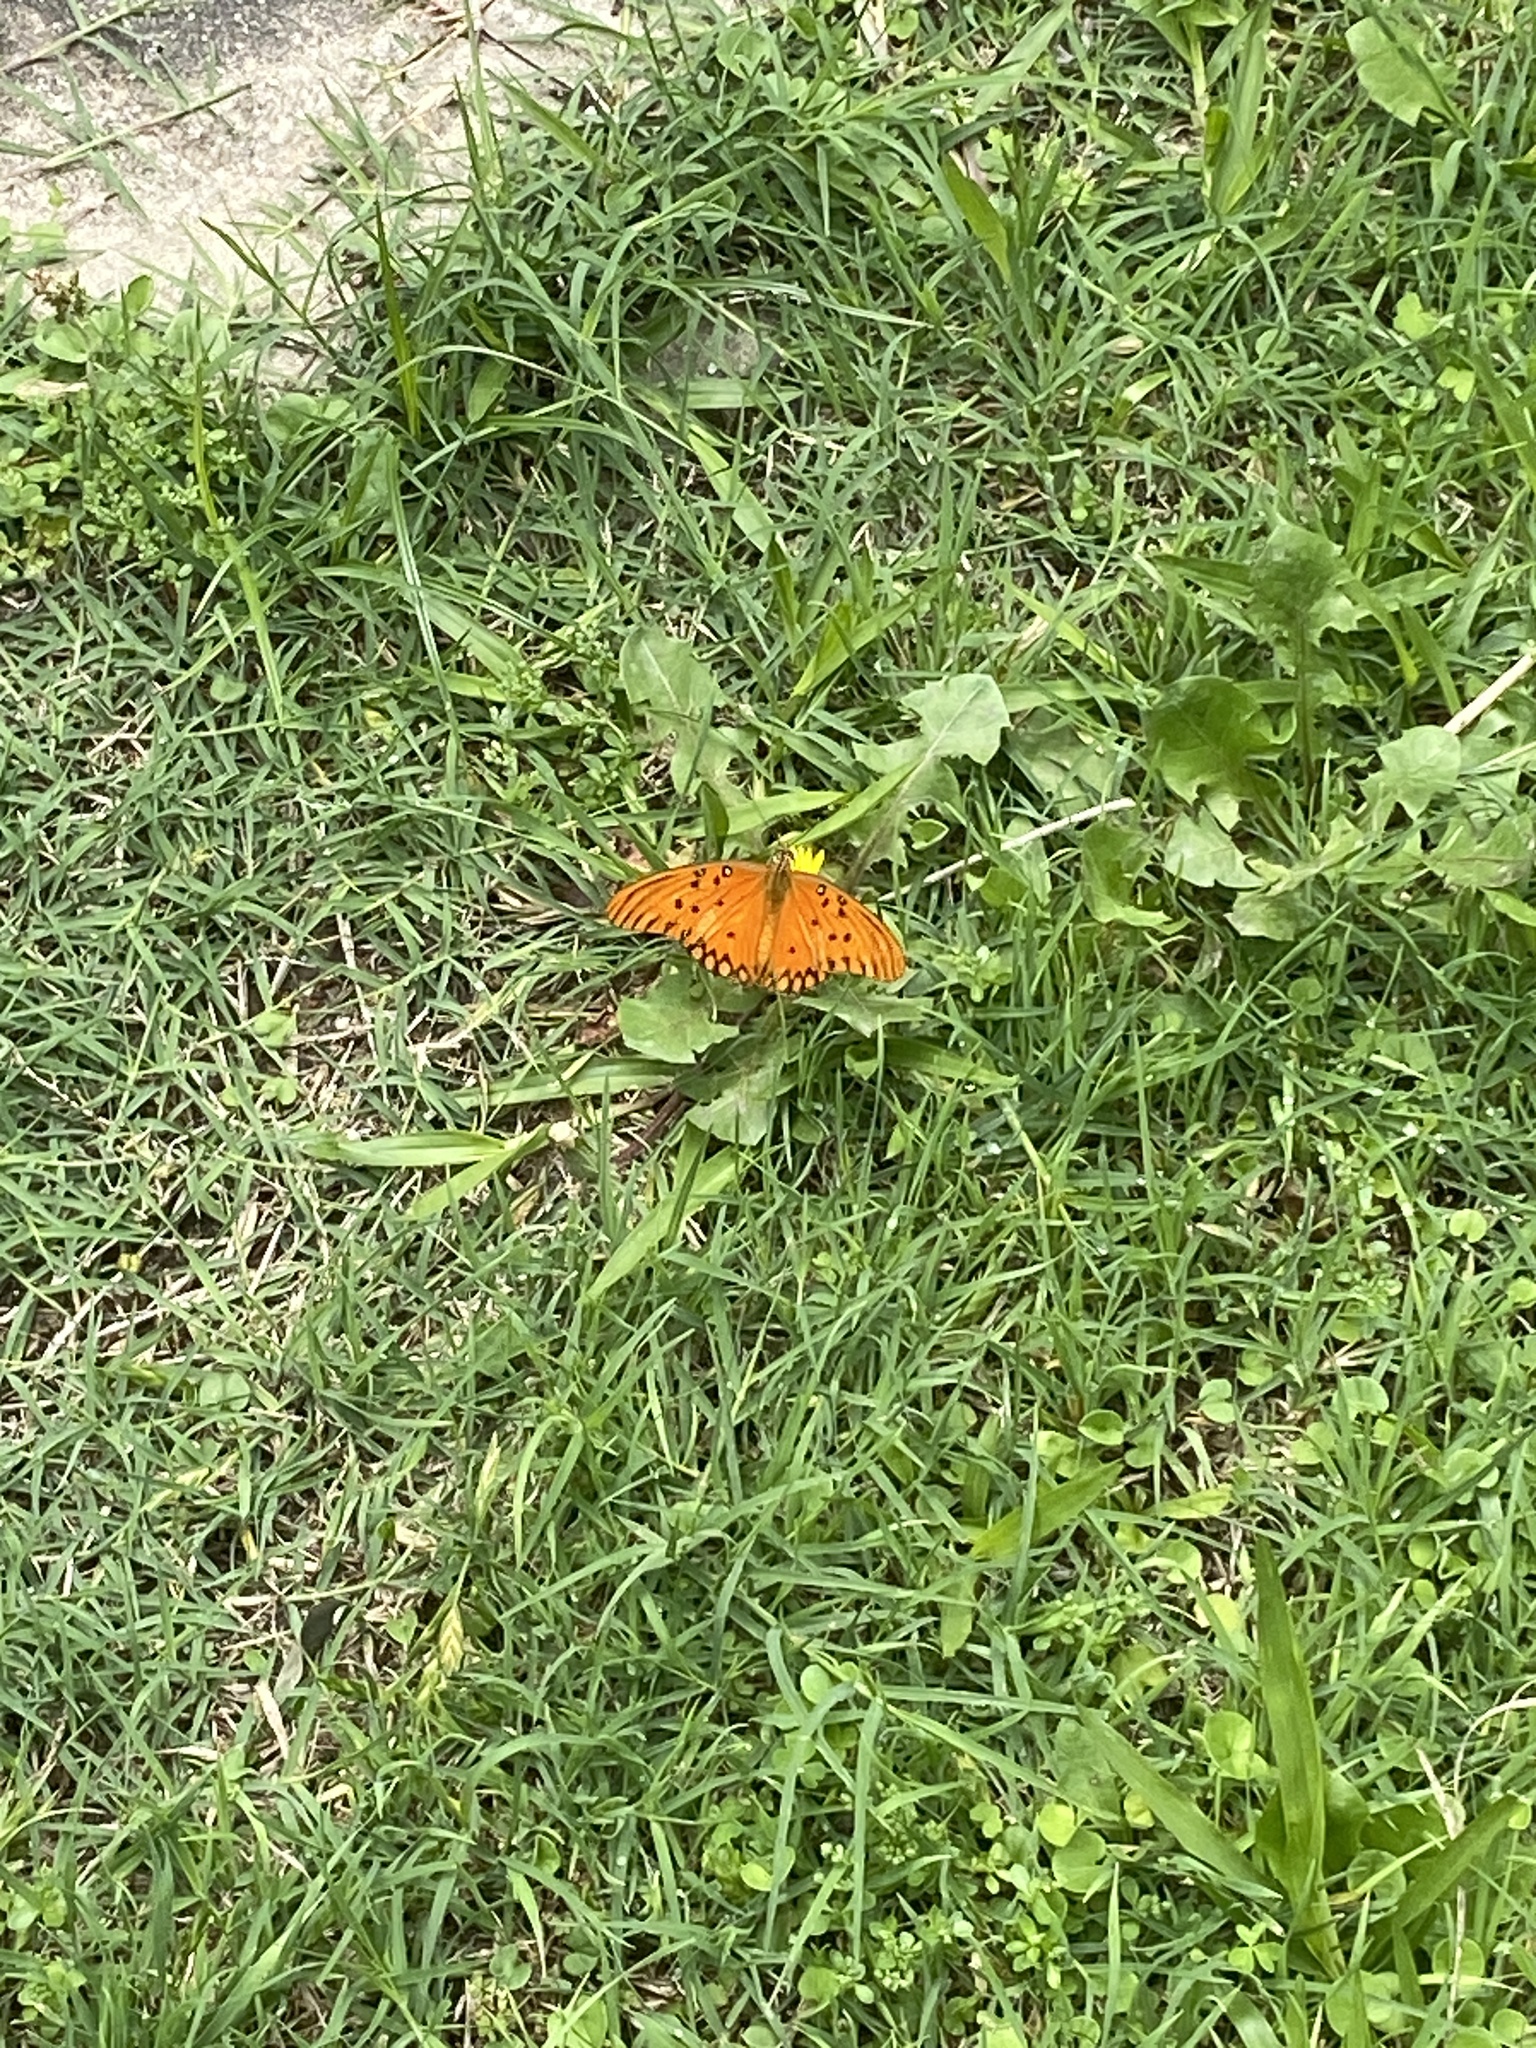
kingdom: Animalia
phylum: Arthropoda
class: Insecta
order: Lepidoptera
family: Nymphalidae
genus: Dione
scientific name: Dione vanillae
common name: Gulf fritillary
